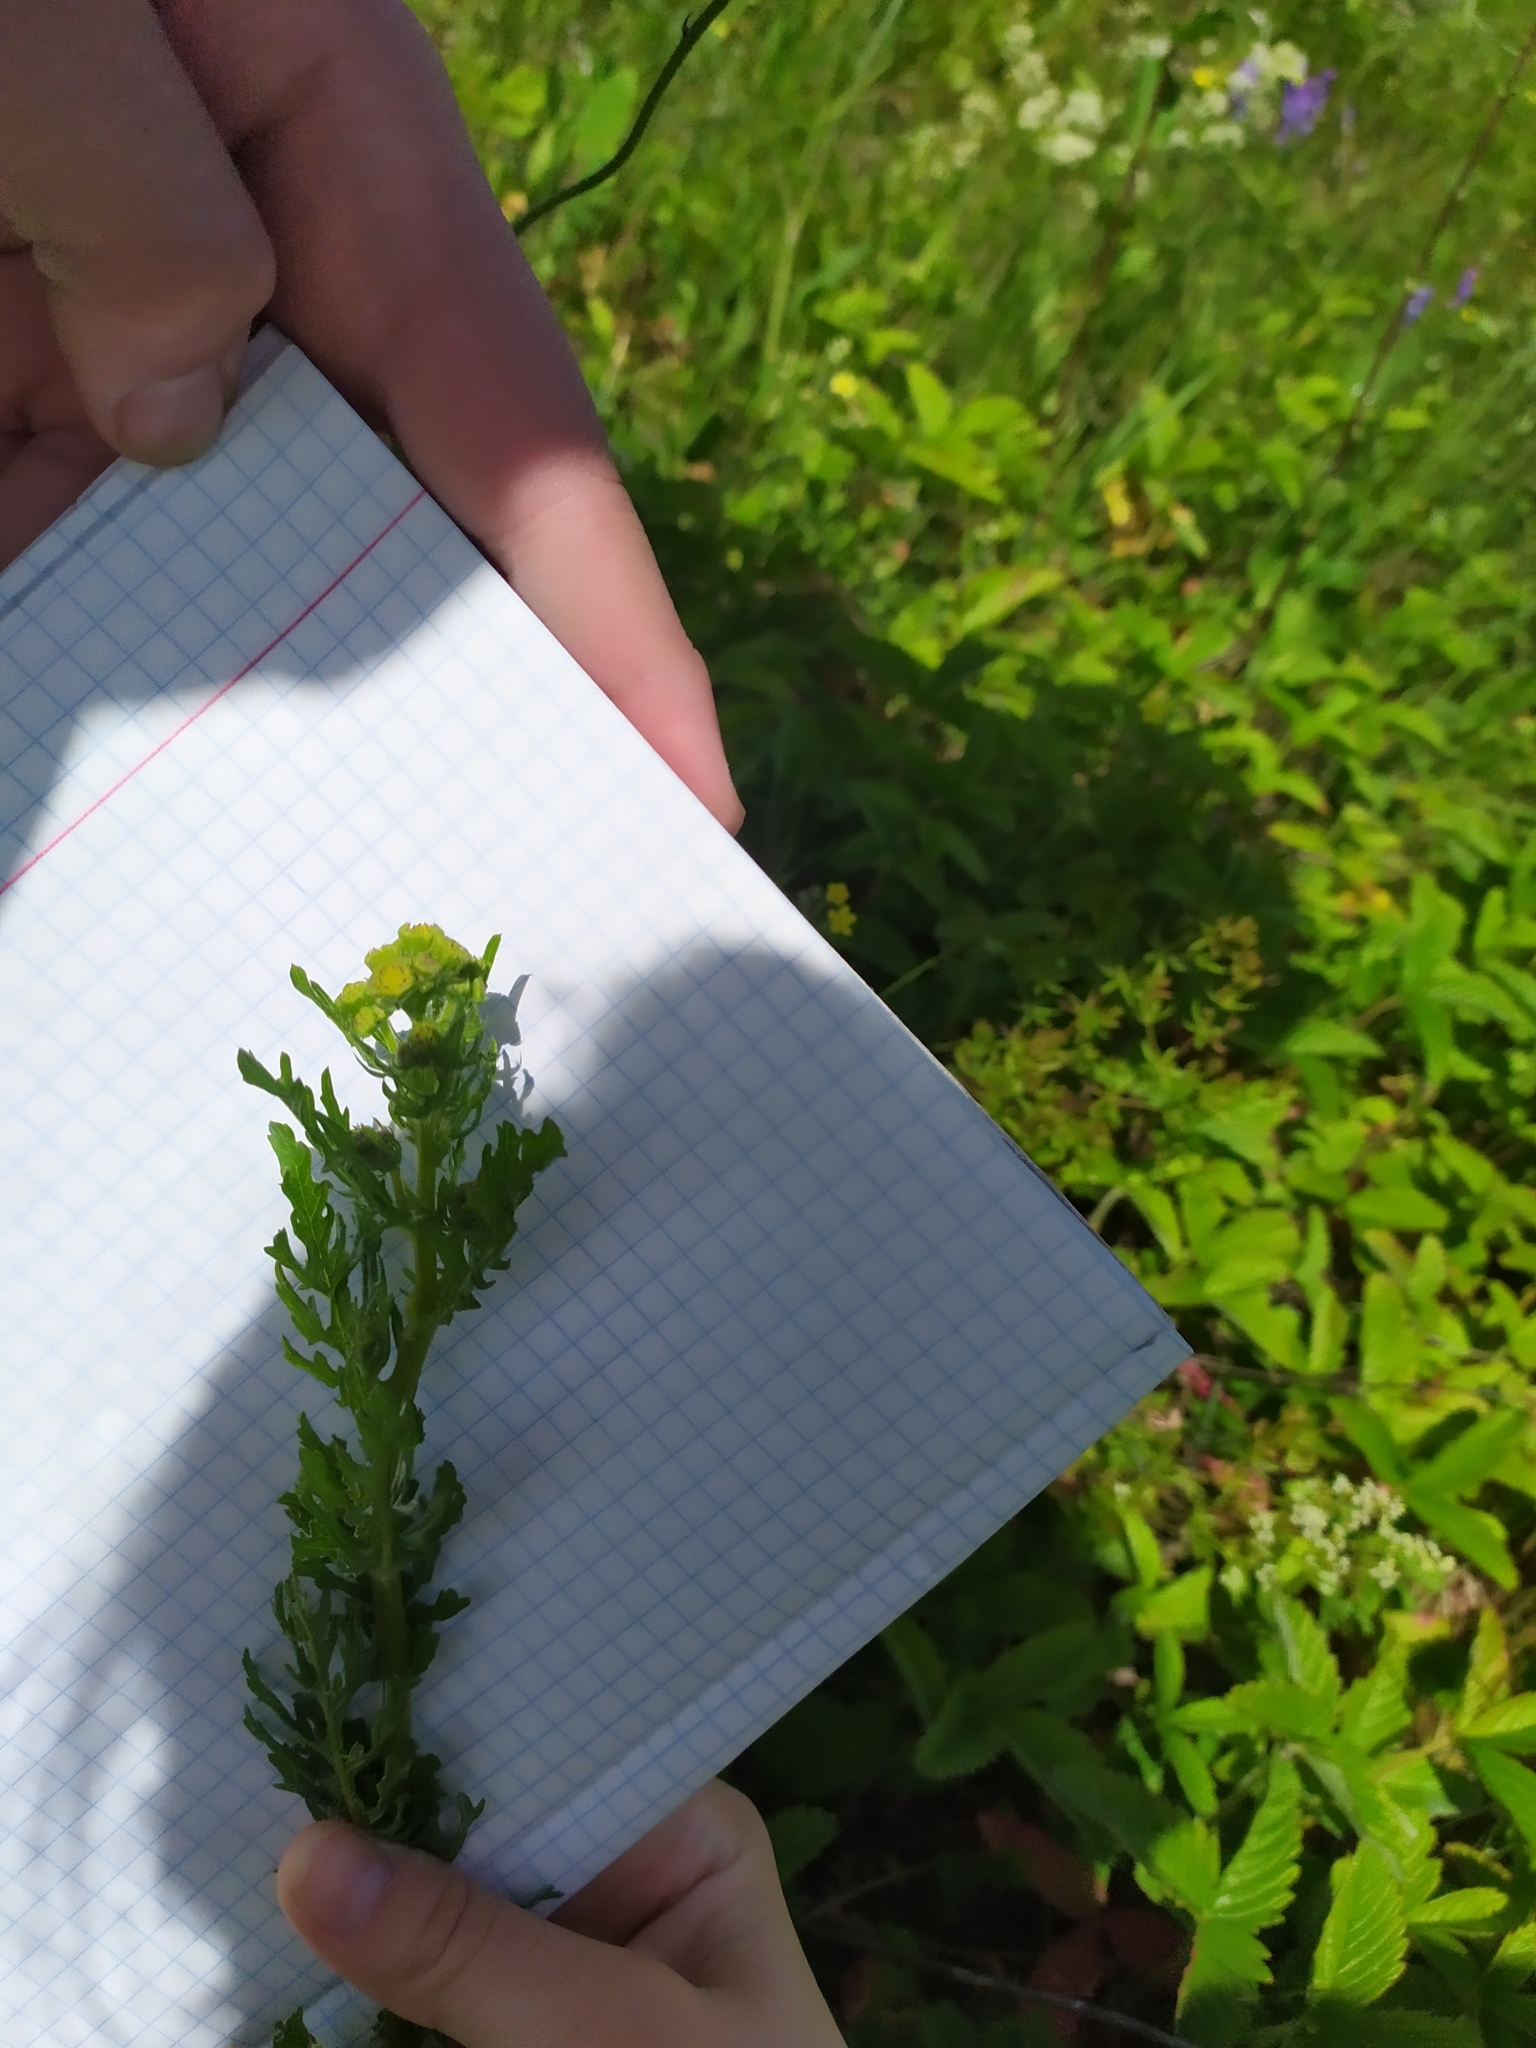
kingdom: Plantae
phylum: Tracheophyta
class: Magnoliopsida
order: Asterales
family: Asteraceae
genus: Jacobaea
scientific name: Jacobaea vulgaris
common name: Stinking willie
